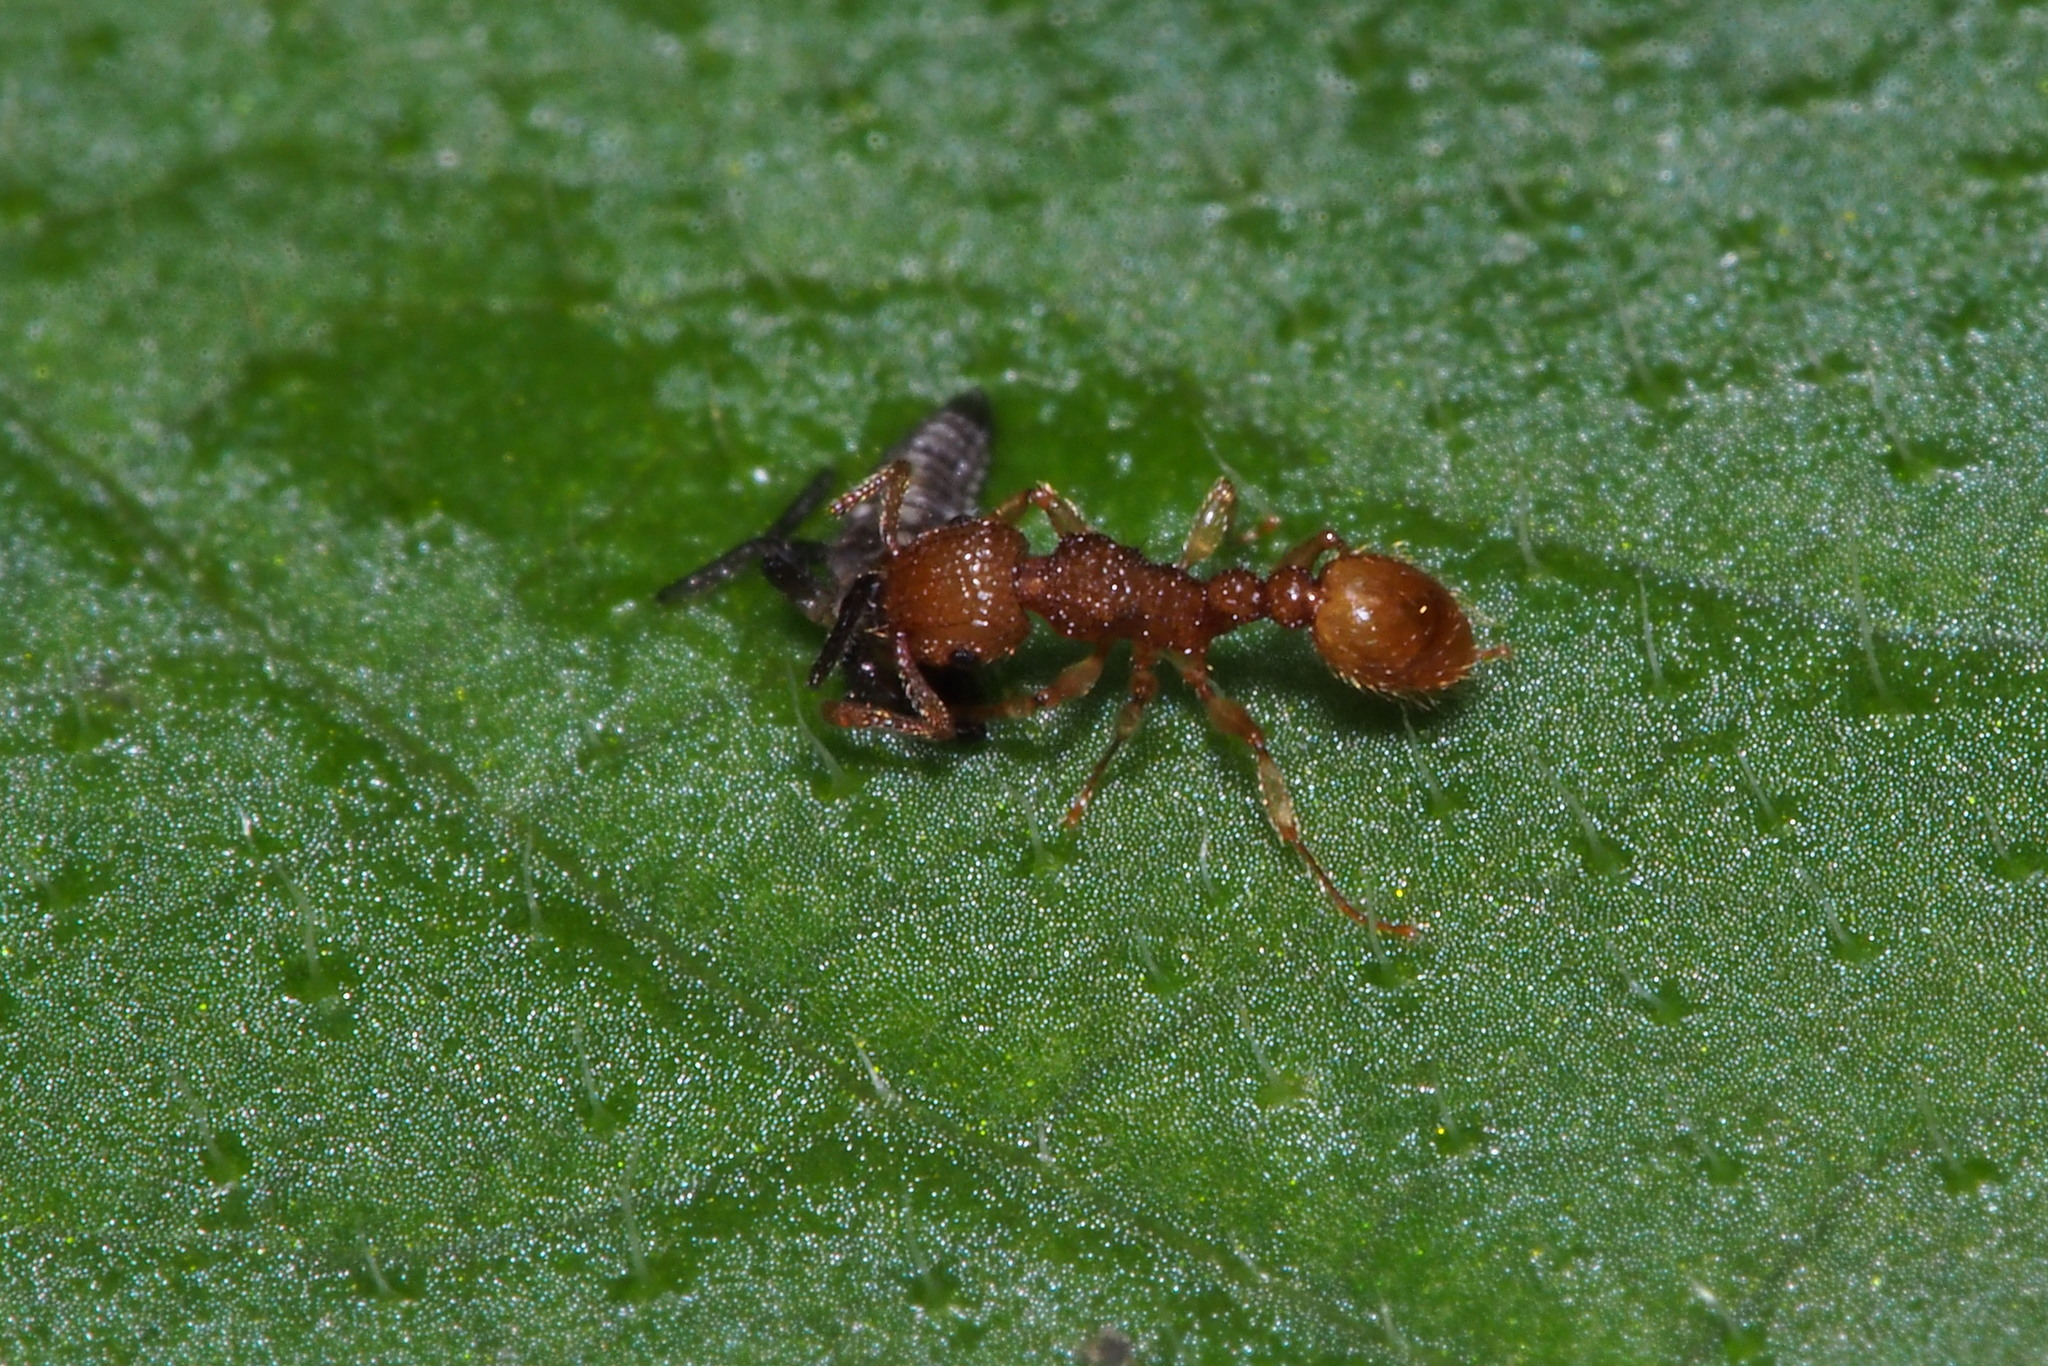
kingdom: Animalia
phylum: Arthropoda
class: Insecta
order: Hymenoptera
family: Formicidae
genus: Tetramorium
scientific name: Tetramorium nipponense
